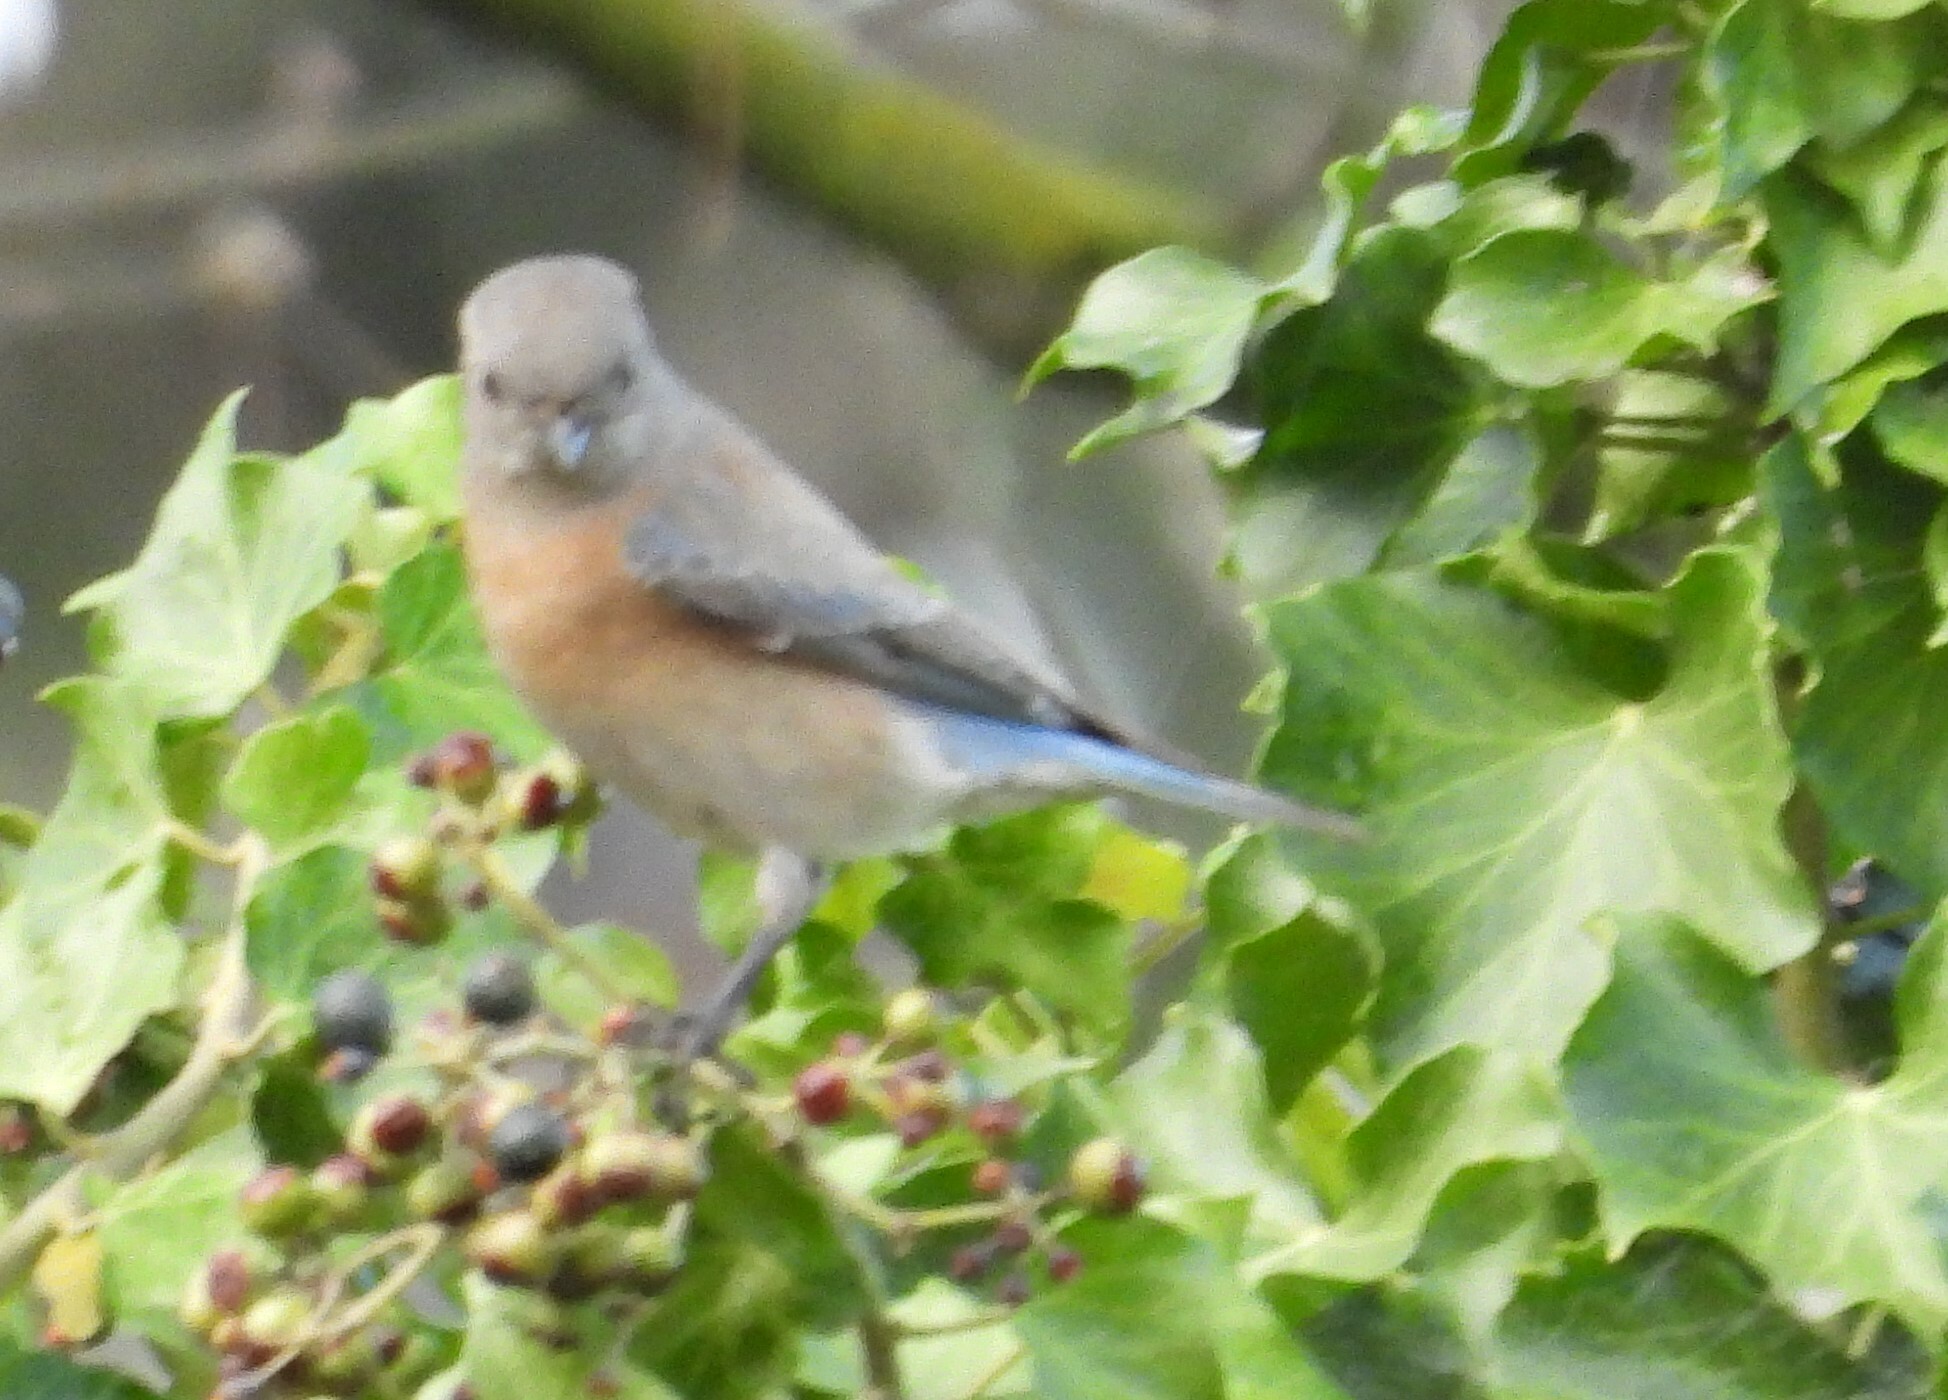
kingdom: Animalia
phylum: Chordata
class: Aves
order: Passeriformes
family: Turdidae
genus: Sialia
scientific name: Sialia mexicana
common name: Western bluebird
